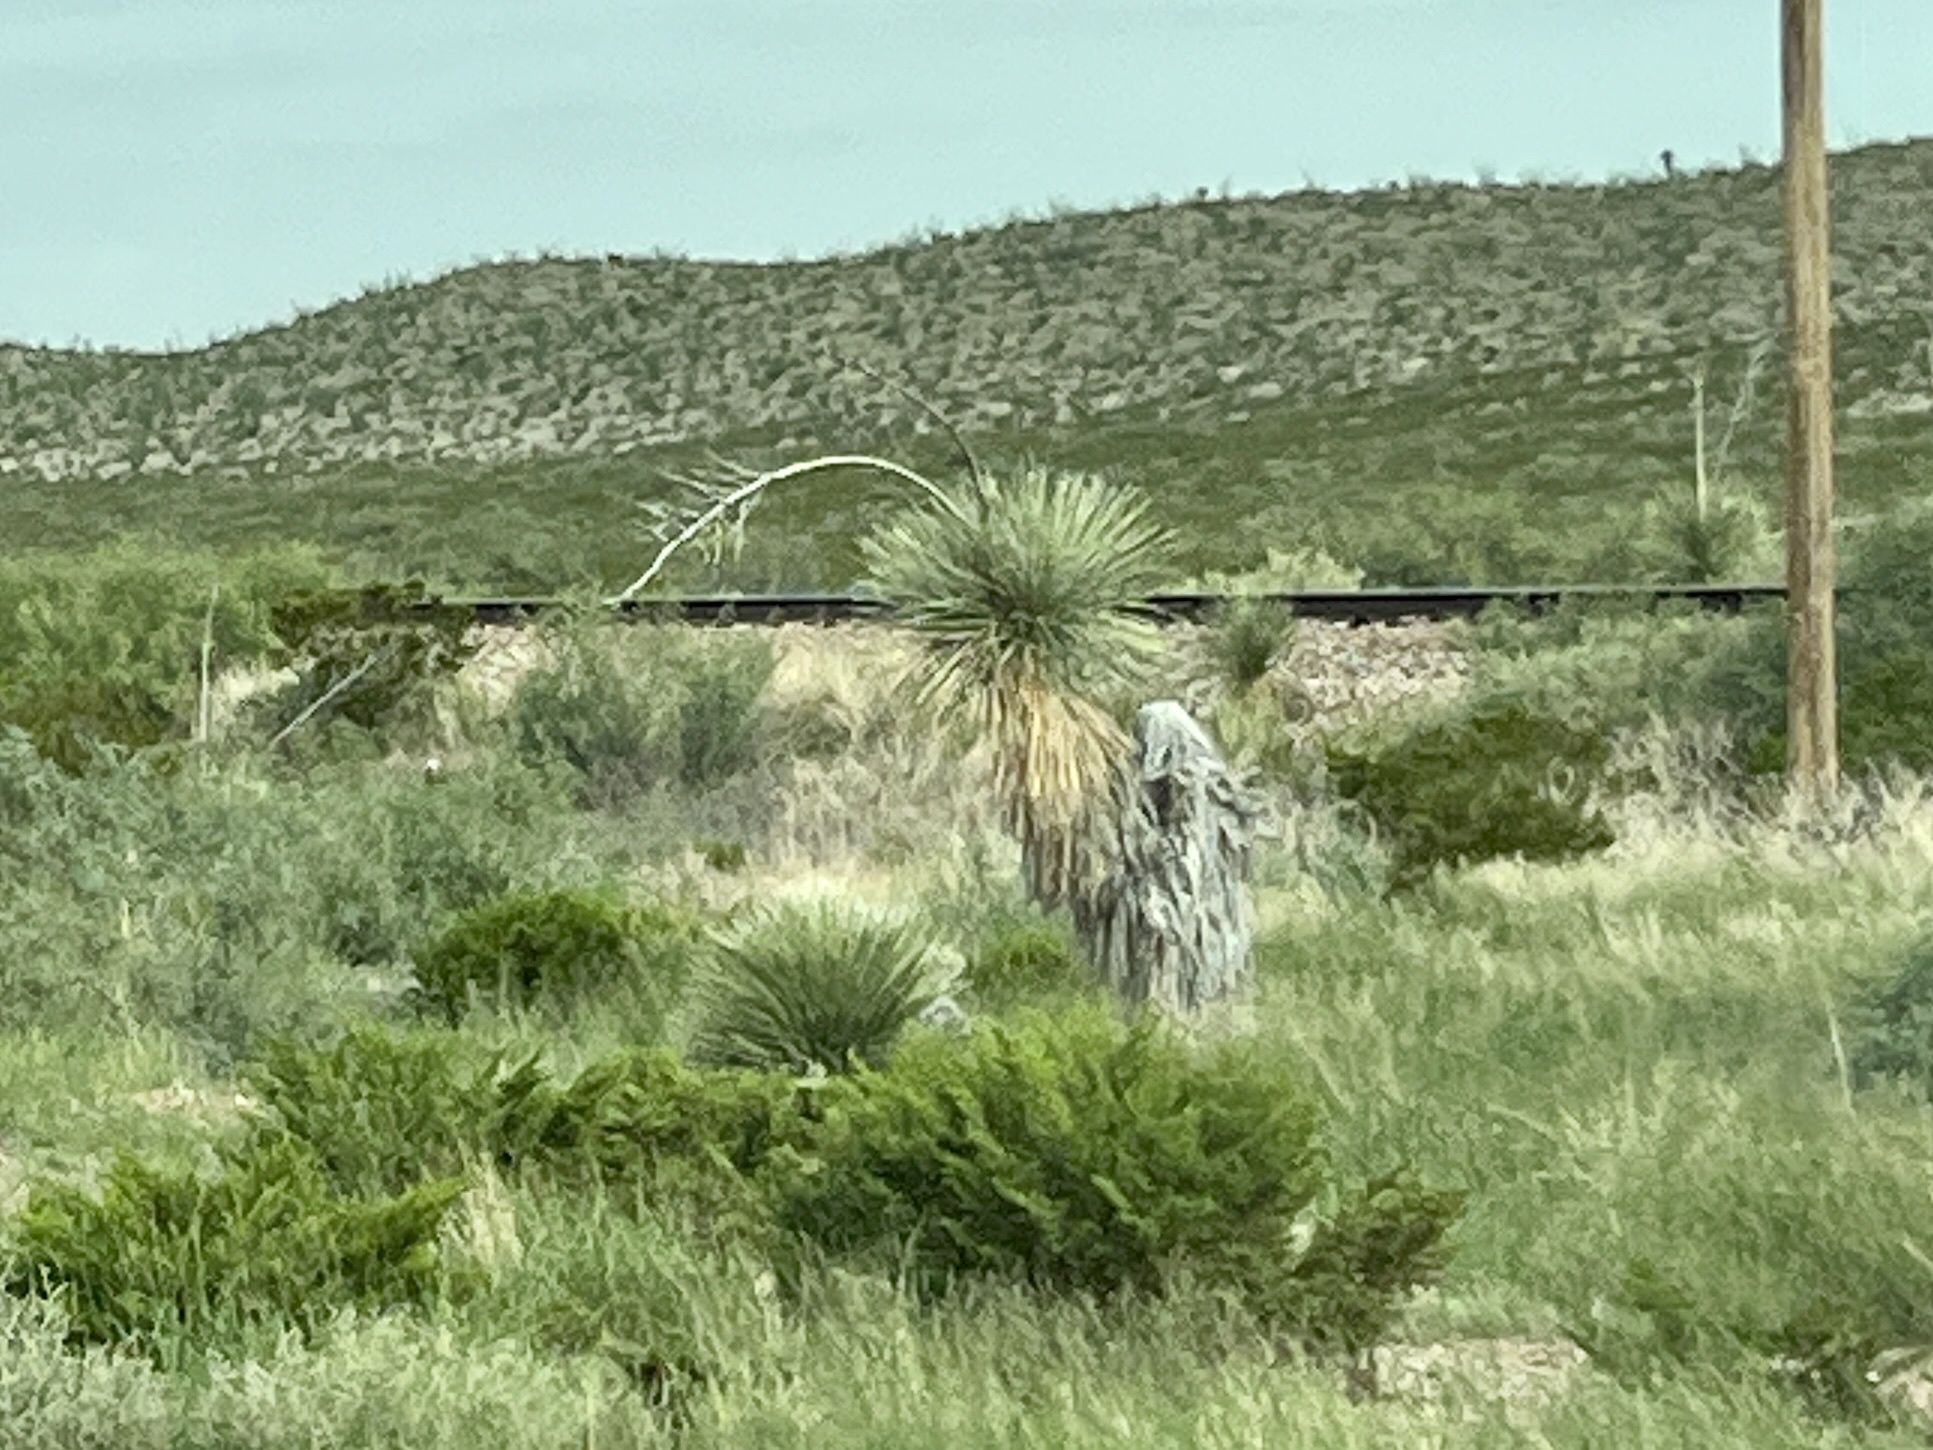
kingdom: Plantae
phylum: Tracheophyta
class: Liliopsida
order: Asparagales
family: Asparagaceae
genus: Yucca
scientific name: Yucca elata
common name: Palmella
